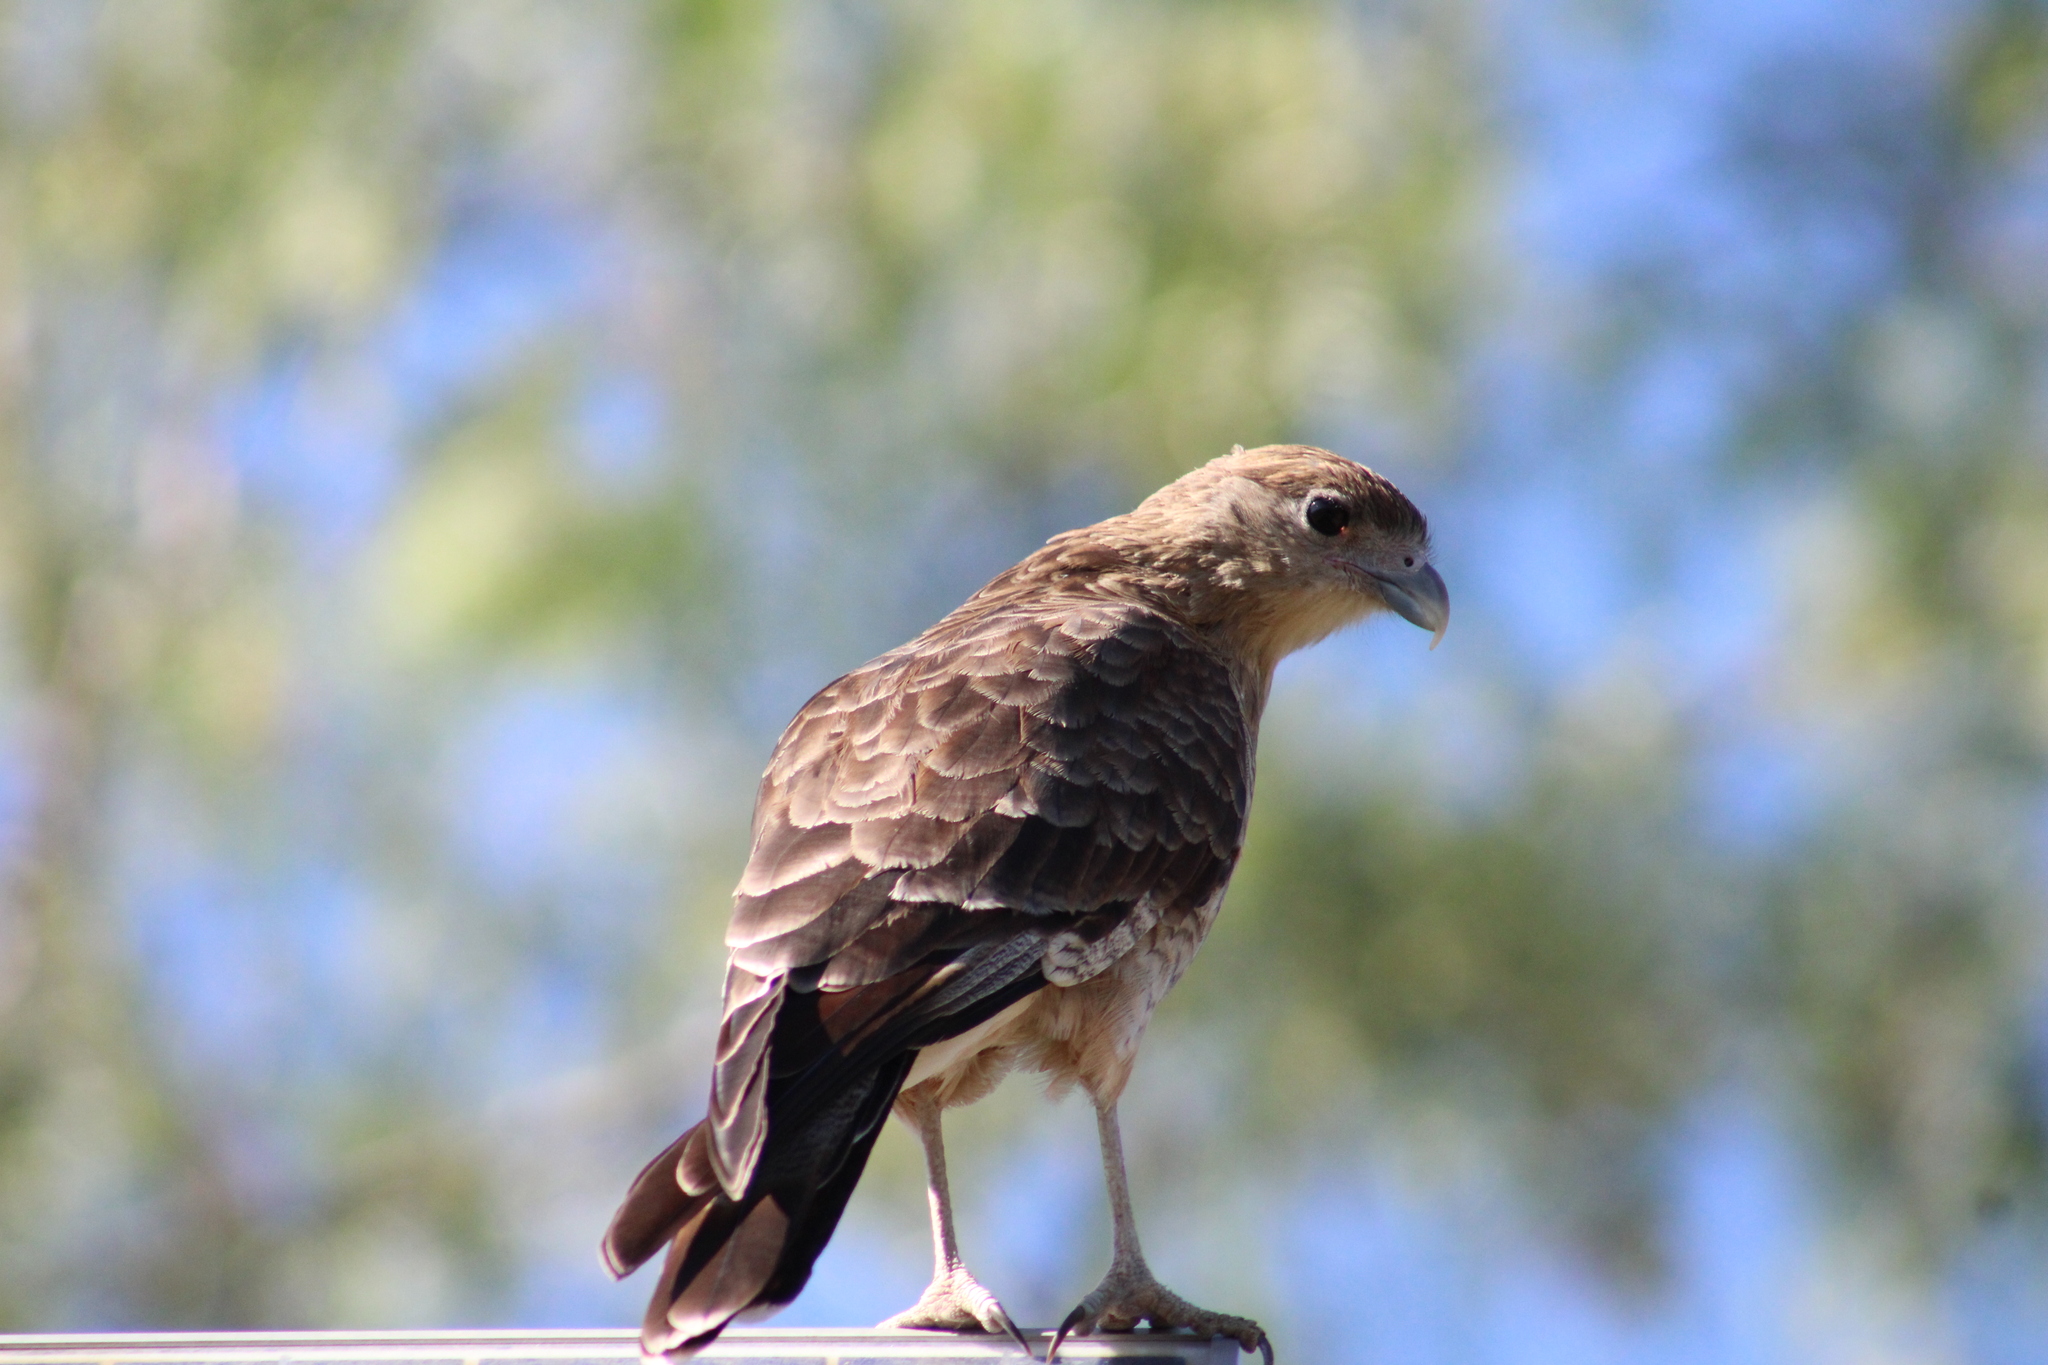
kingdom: Animalia
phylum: Chordata
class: Aves
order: Falconiformes
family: Falconidae
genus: Daptrius
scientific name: Daptrius
